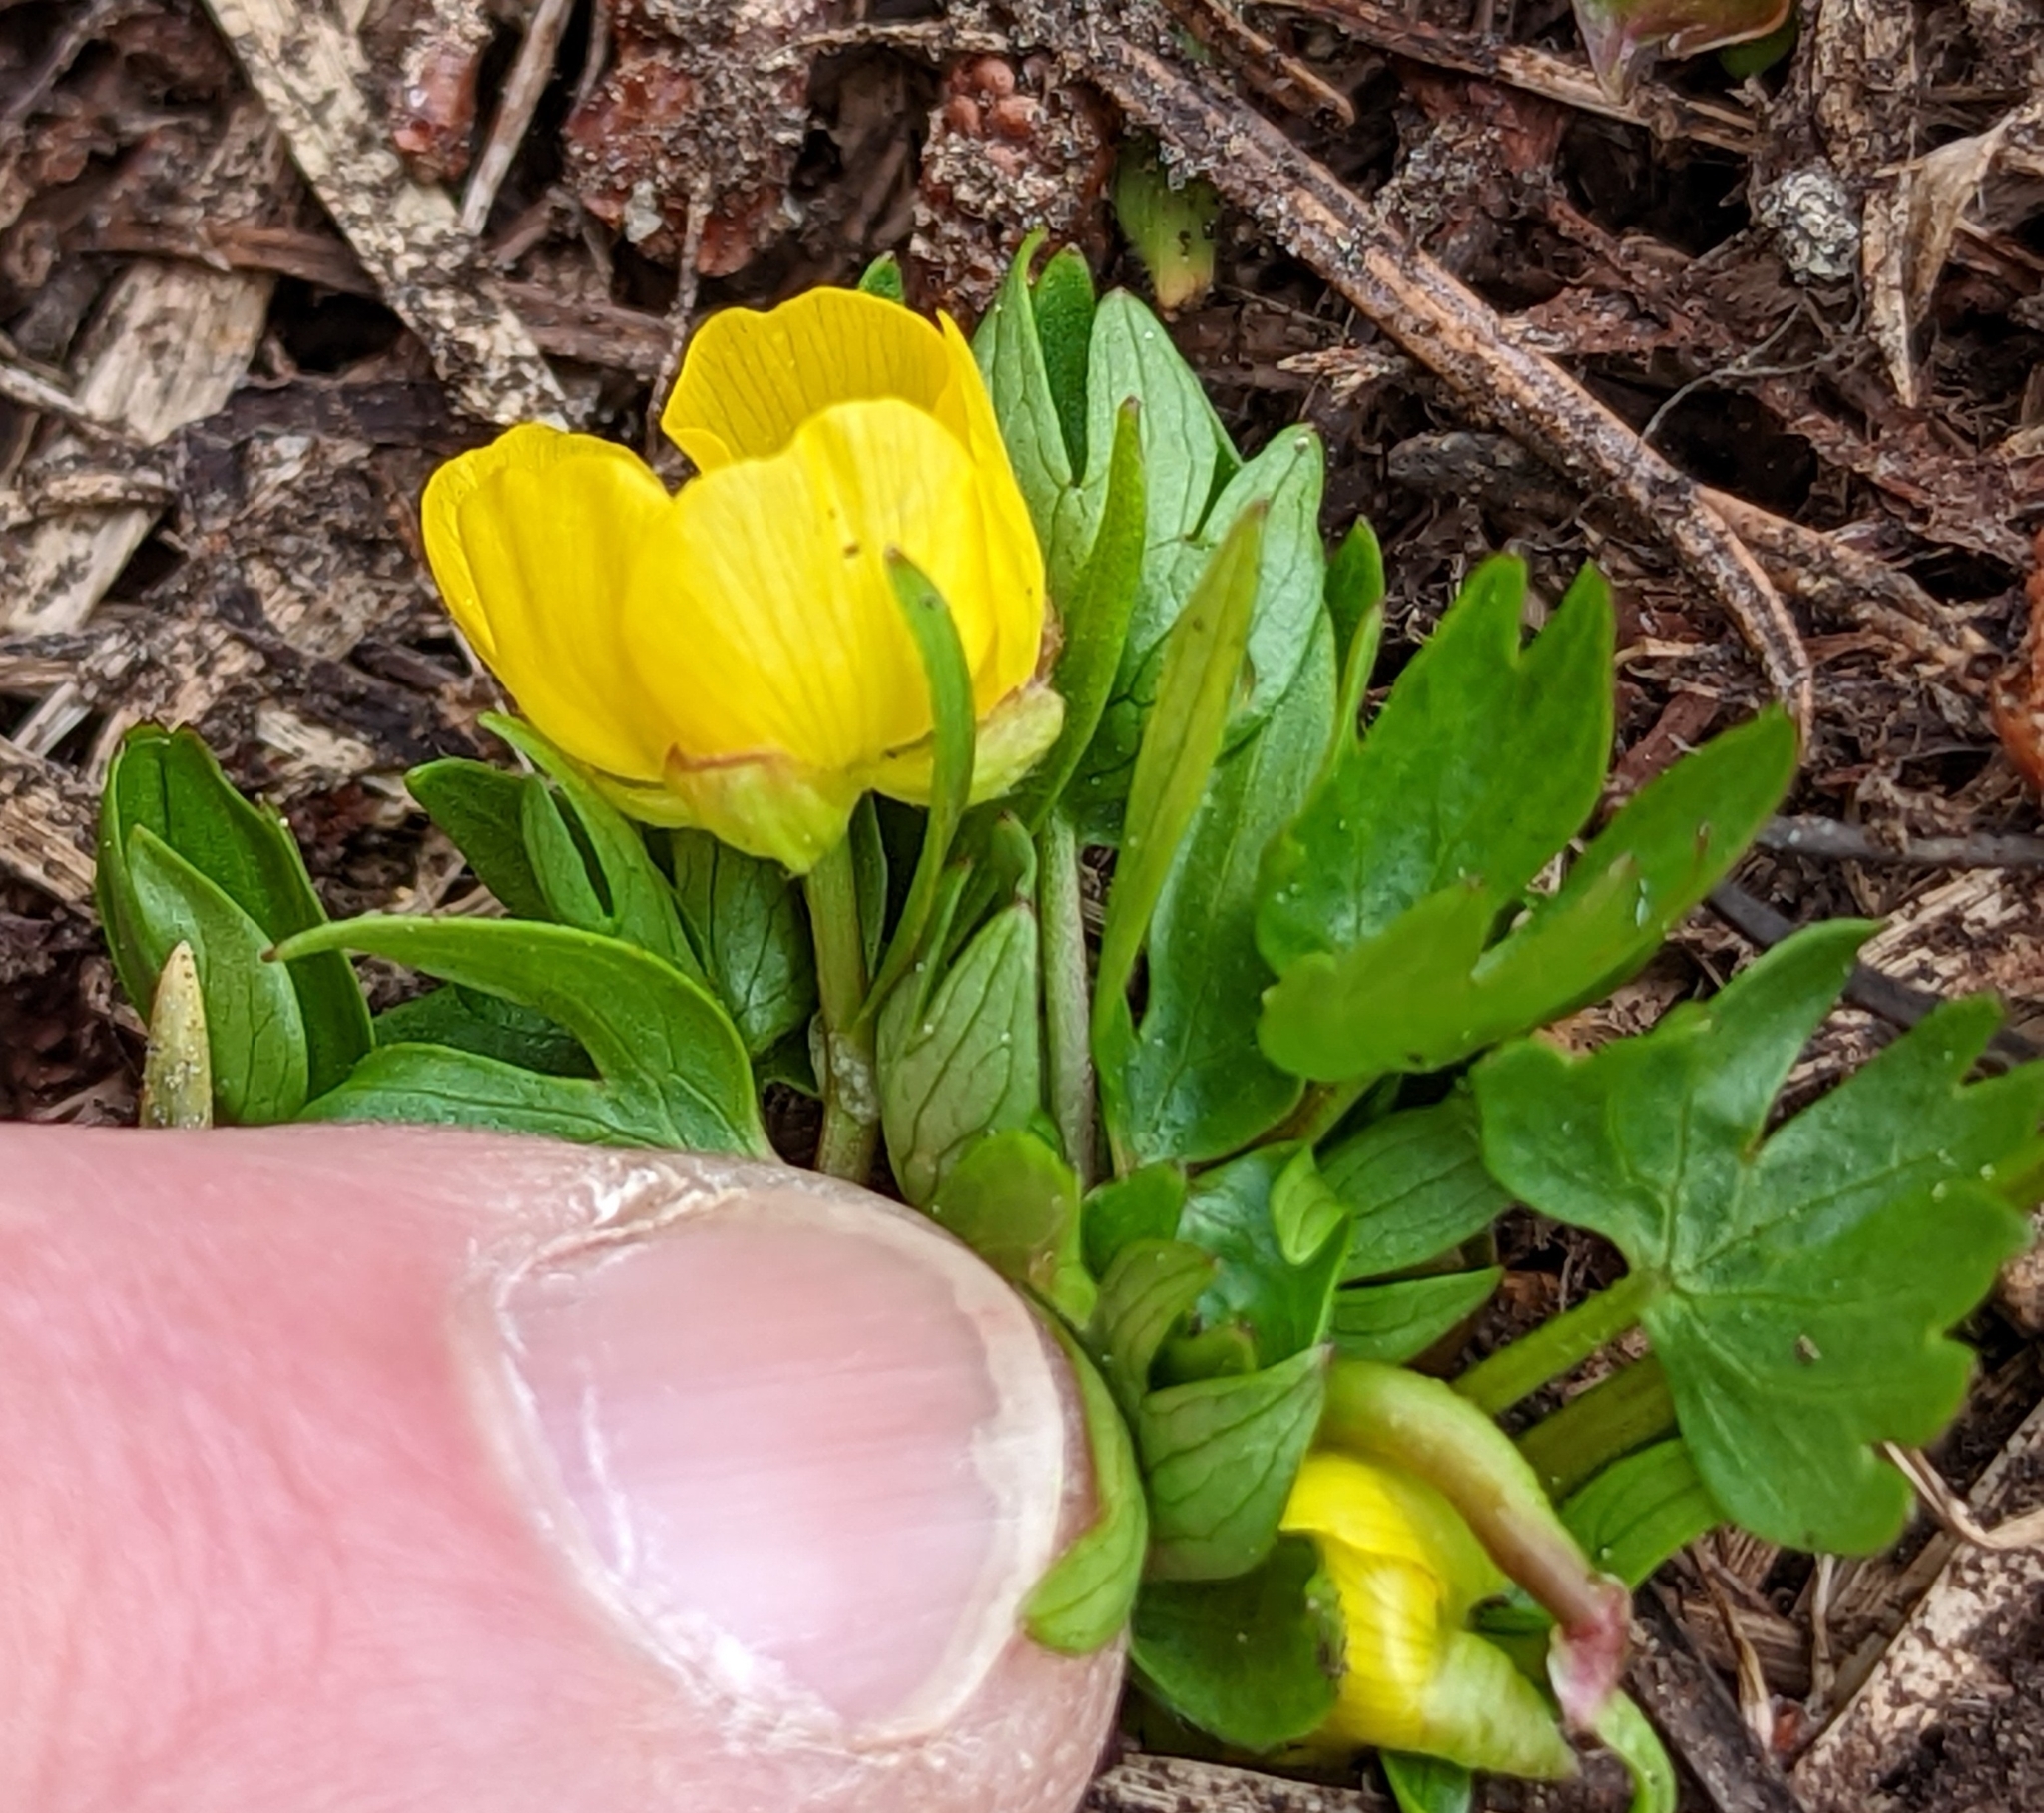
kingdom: Plantae
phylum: Tracheophyta
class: Magnoliopsida
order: Ranunculales
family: Ranunculaceae
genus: Ranunculus
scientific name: Ranunculus suksdorfii
